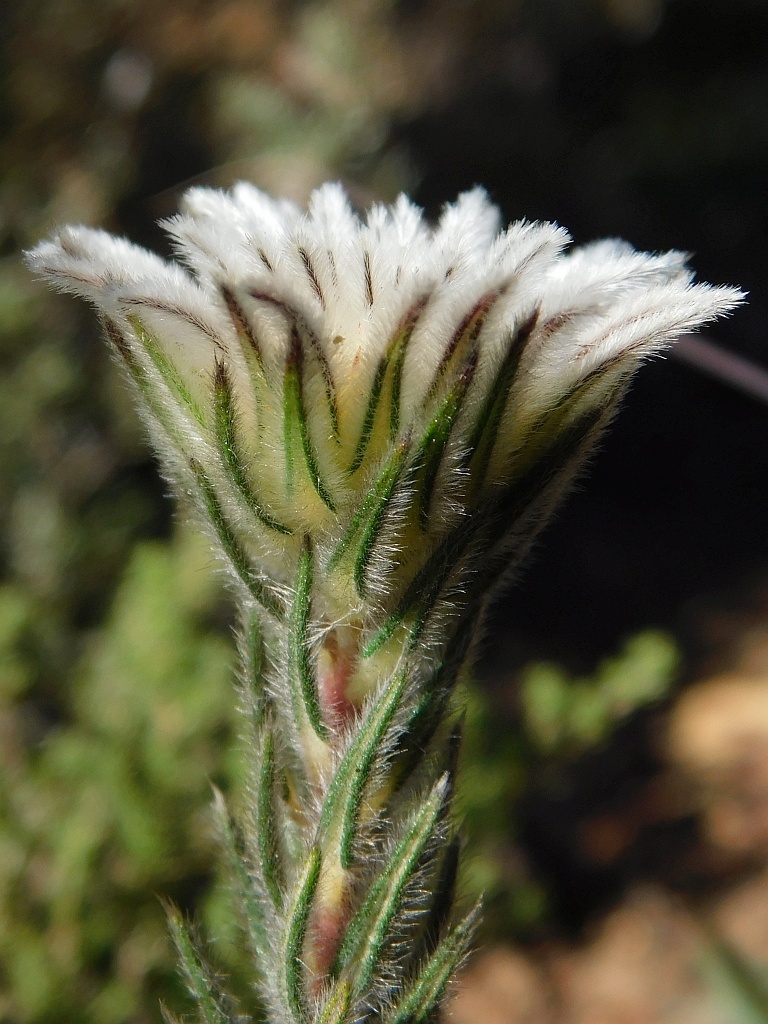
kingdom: Plantae
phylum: Tracheophyta
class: Magnoliopsida
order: Rosales
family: Rhamnaceae
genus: Phylica
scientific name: Phylica calcarata
